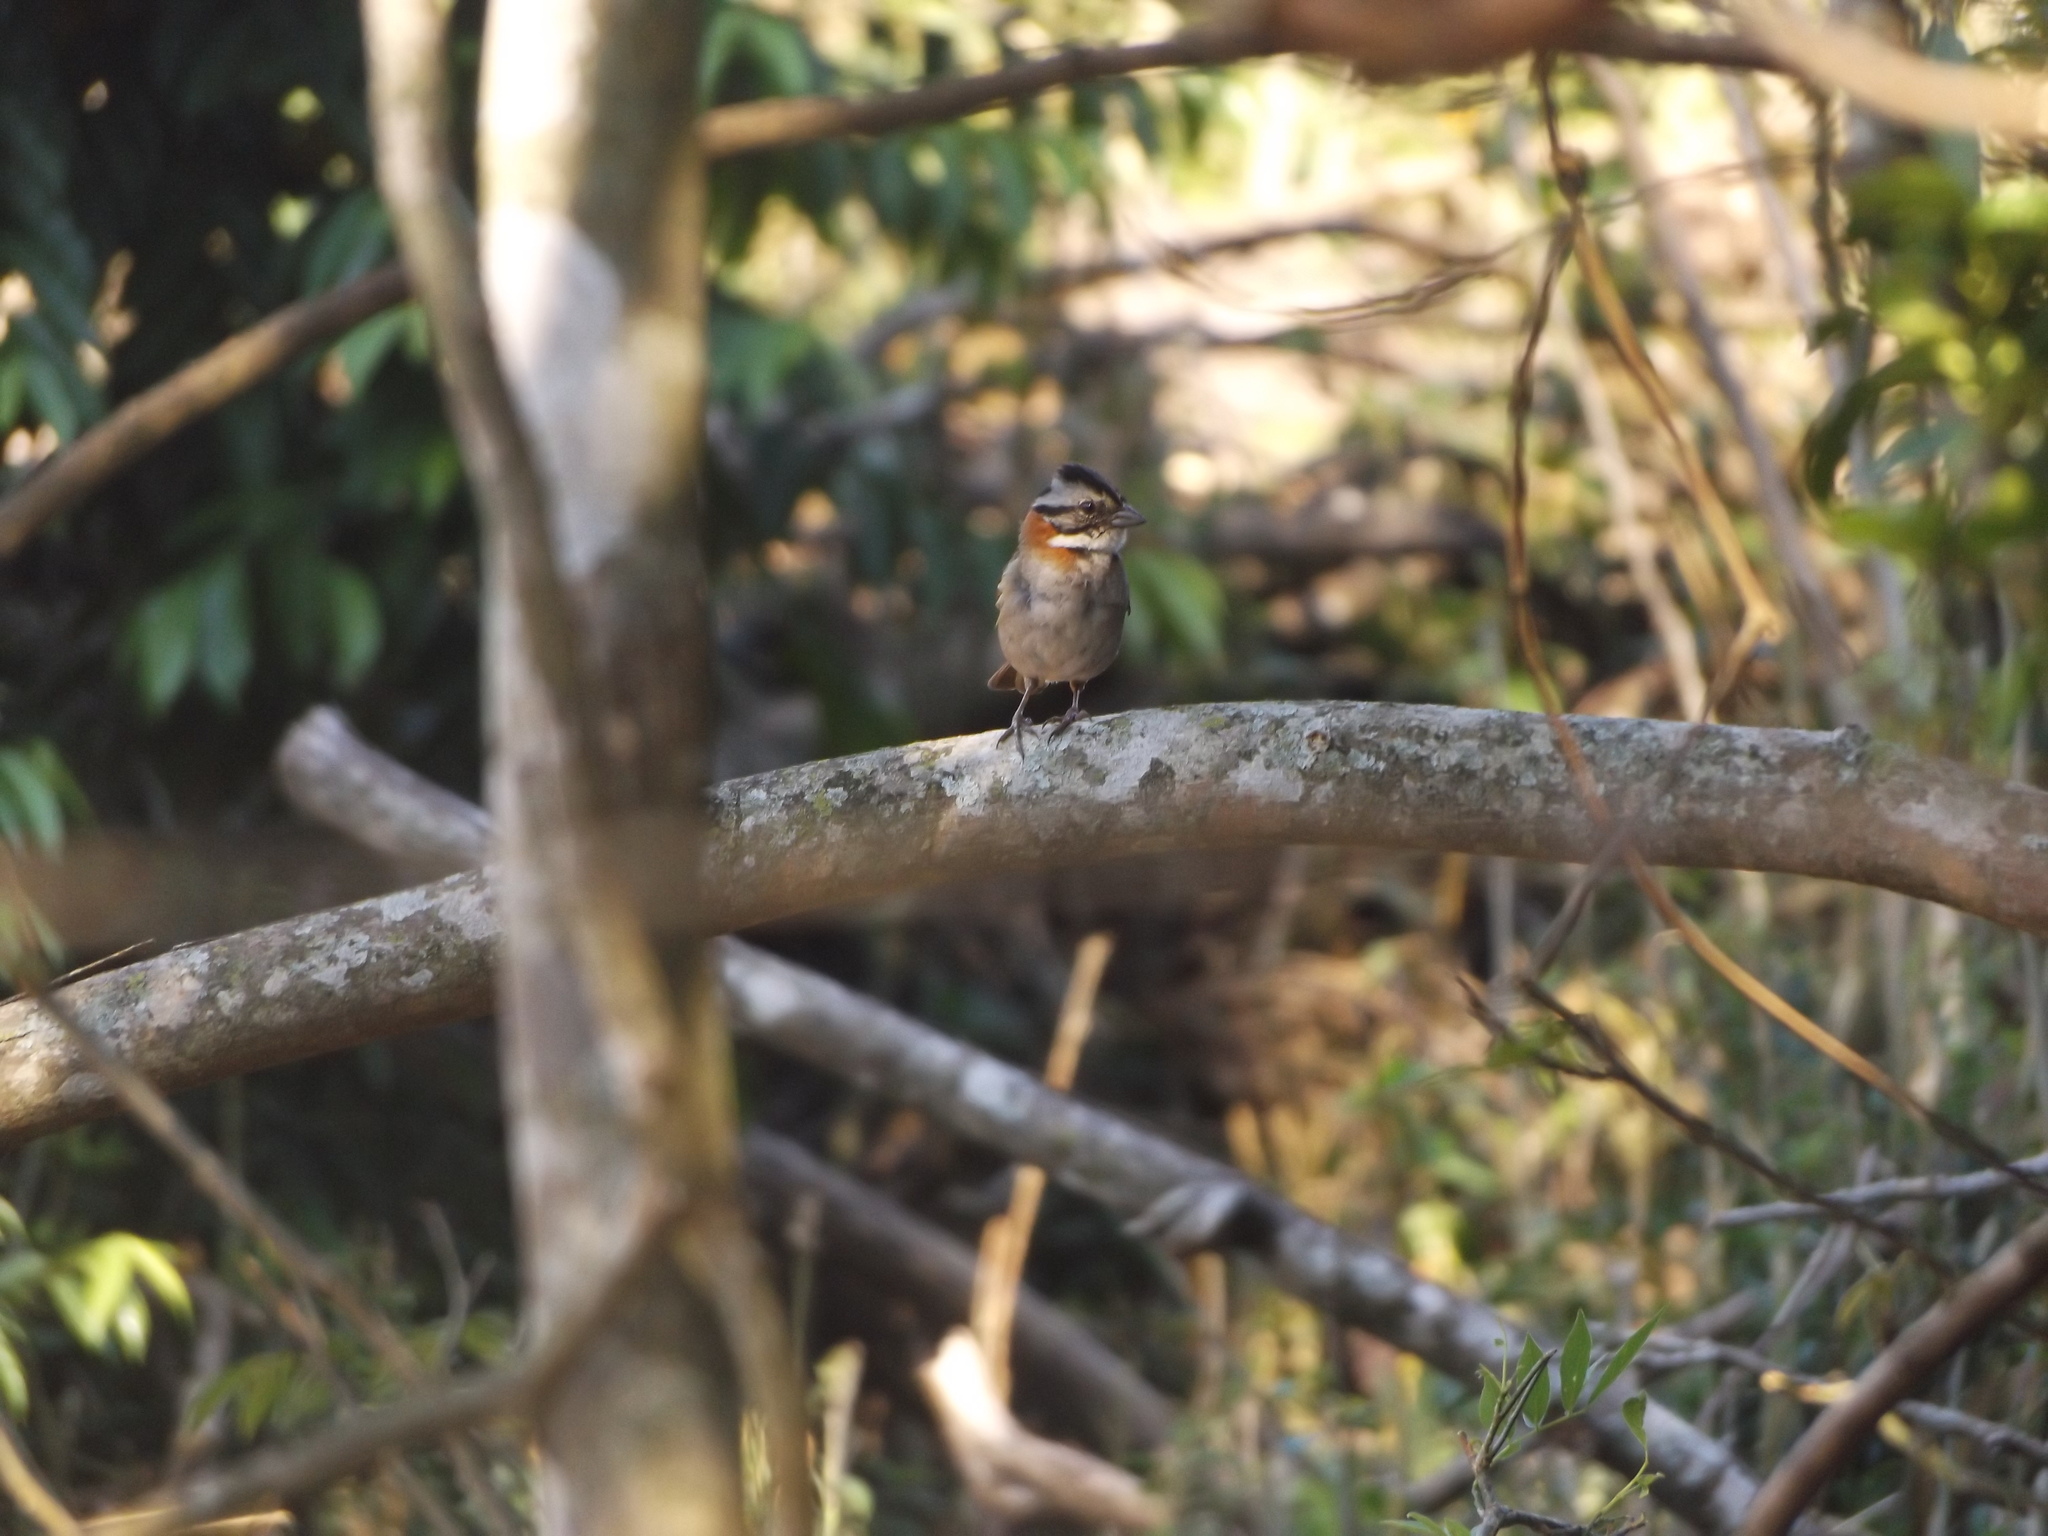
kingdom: Animalia
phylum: Chordata
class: Aves
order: Passeriformes
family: Passerellidae
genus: Zonotrichia
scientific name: Zonotrichia capensis
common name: Rufous-collared sparrow
